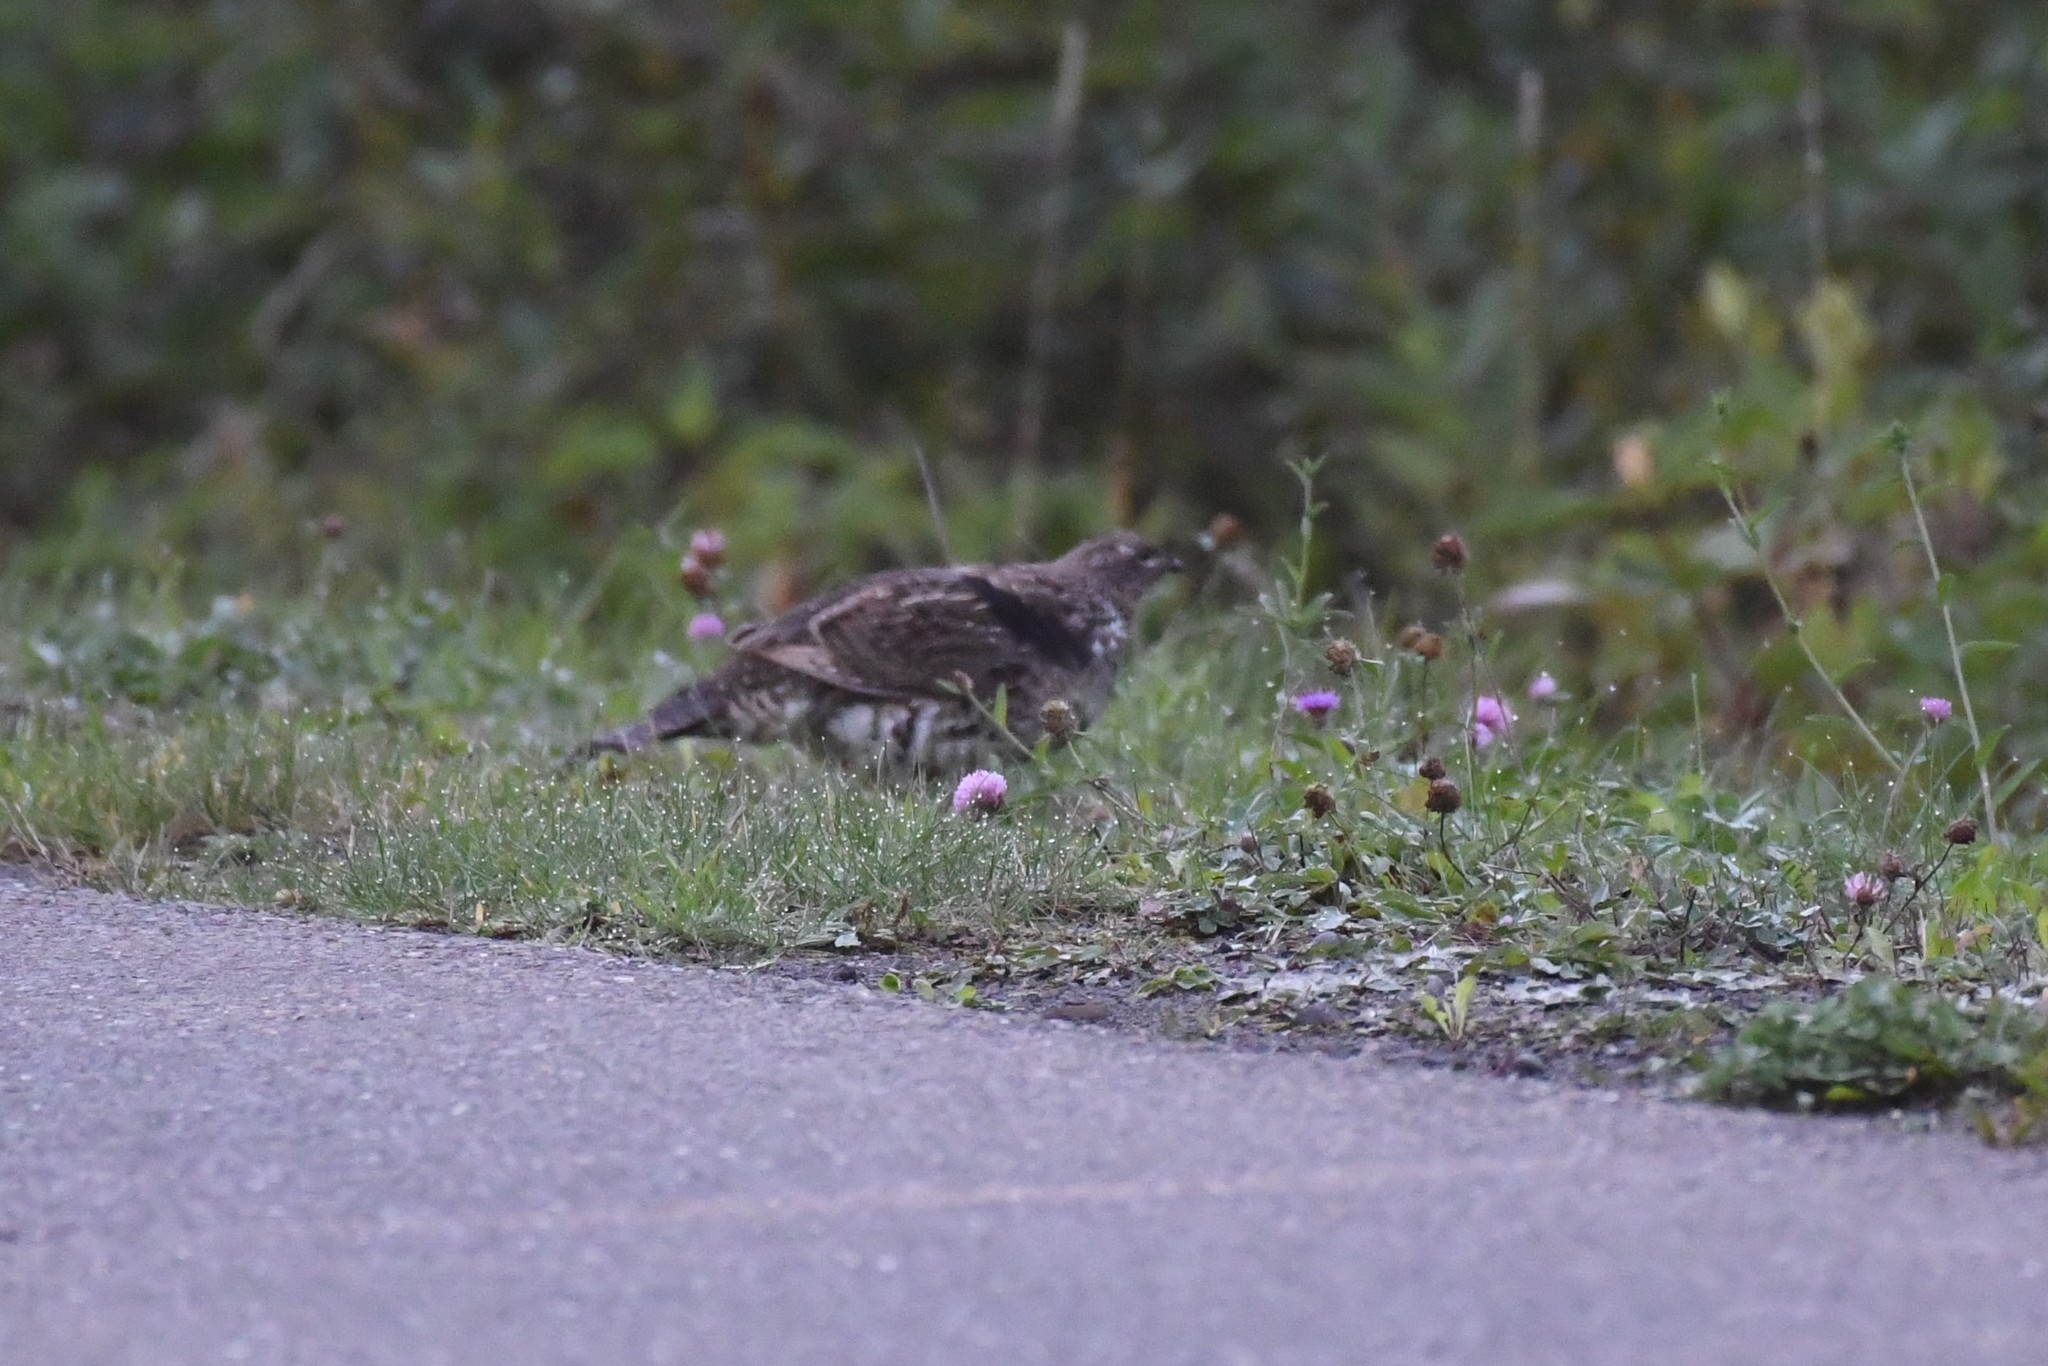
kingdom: Animalia
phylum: Chordata
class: Aves
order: Galliformes
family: Phasianidae
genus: Bonasa
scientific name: Bonasa umbellus
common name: Ruffed grouse
